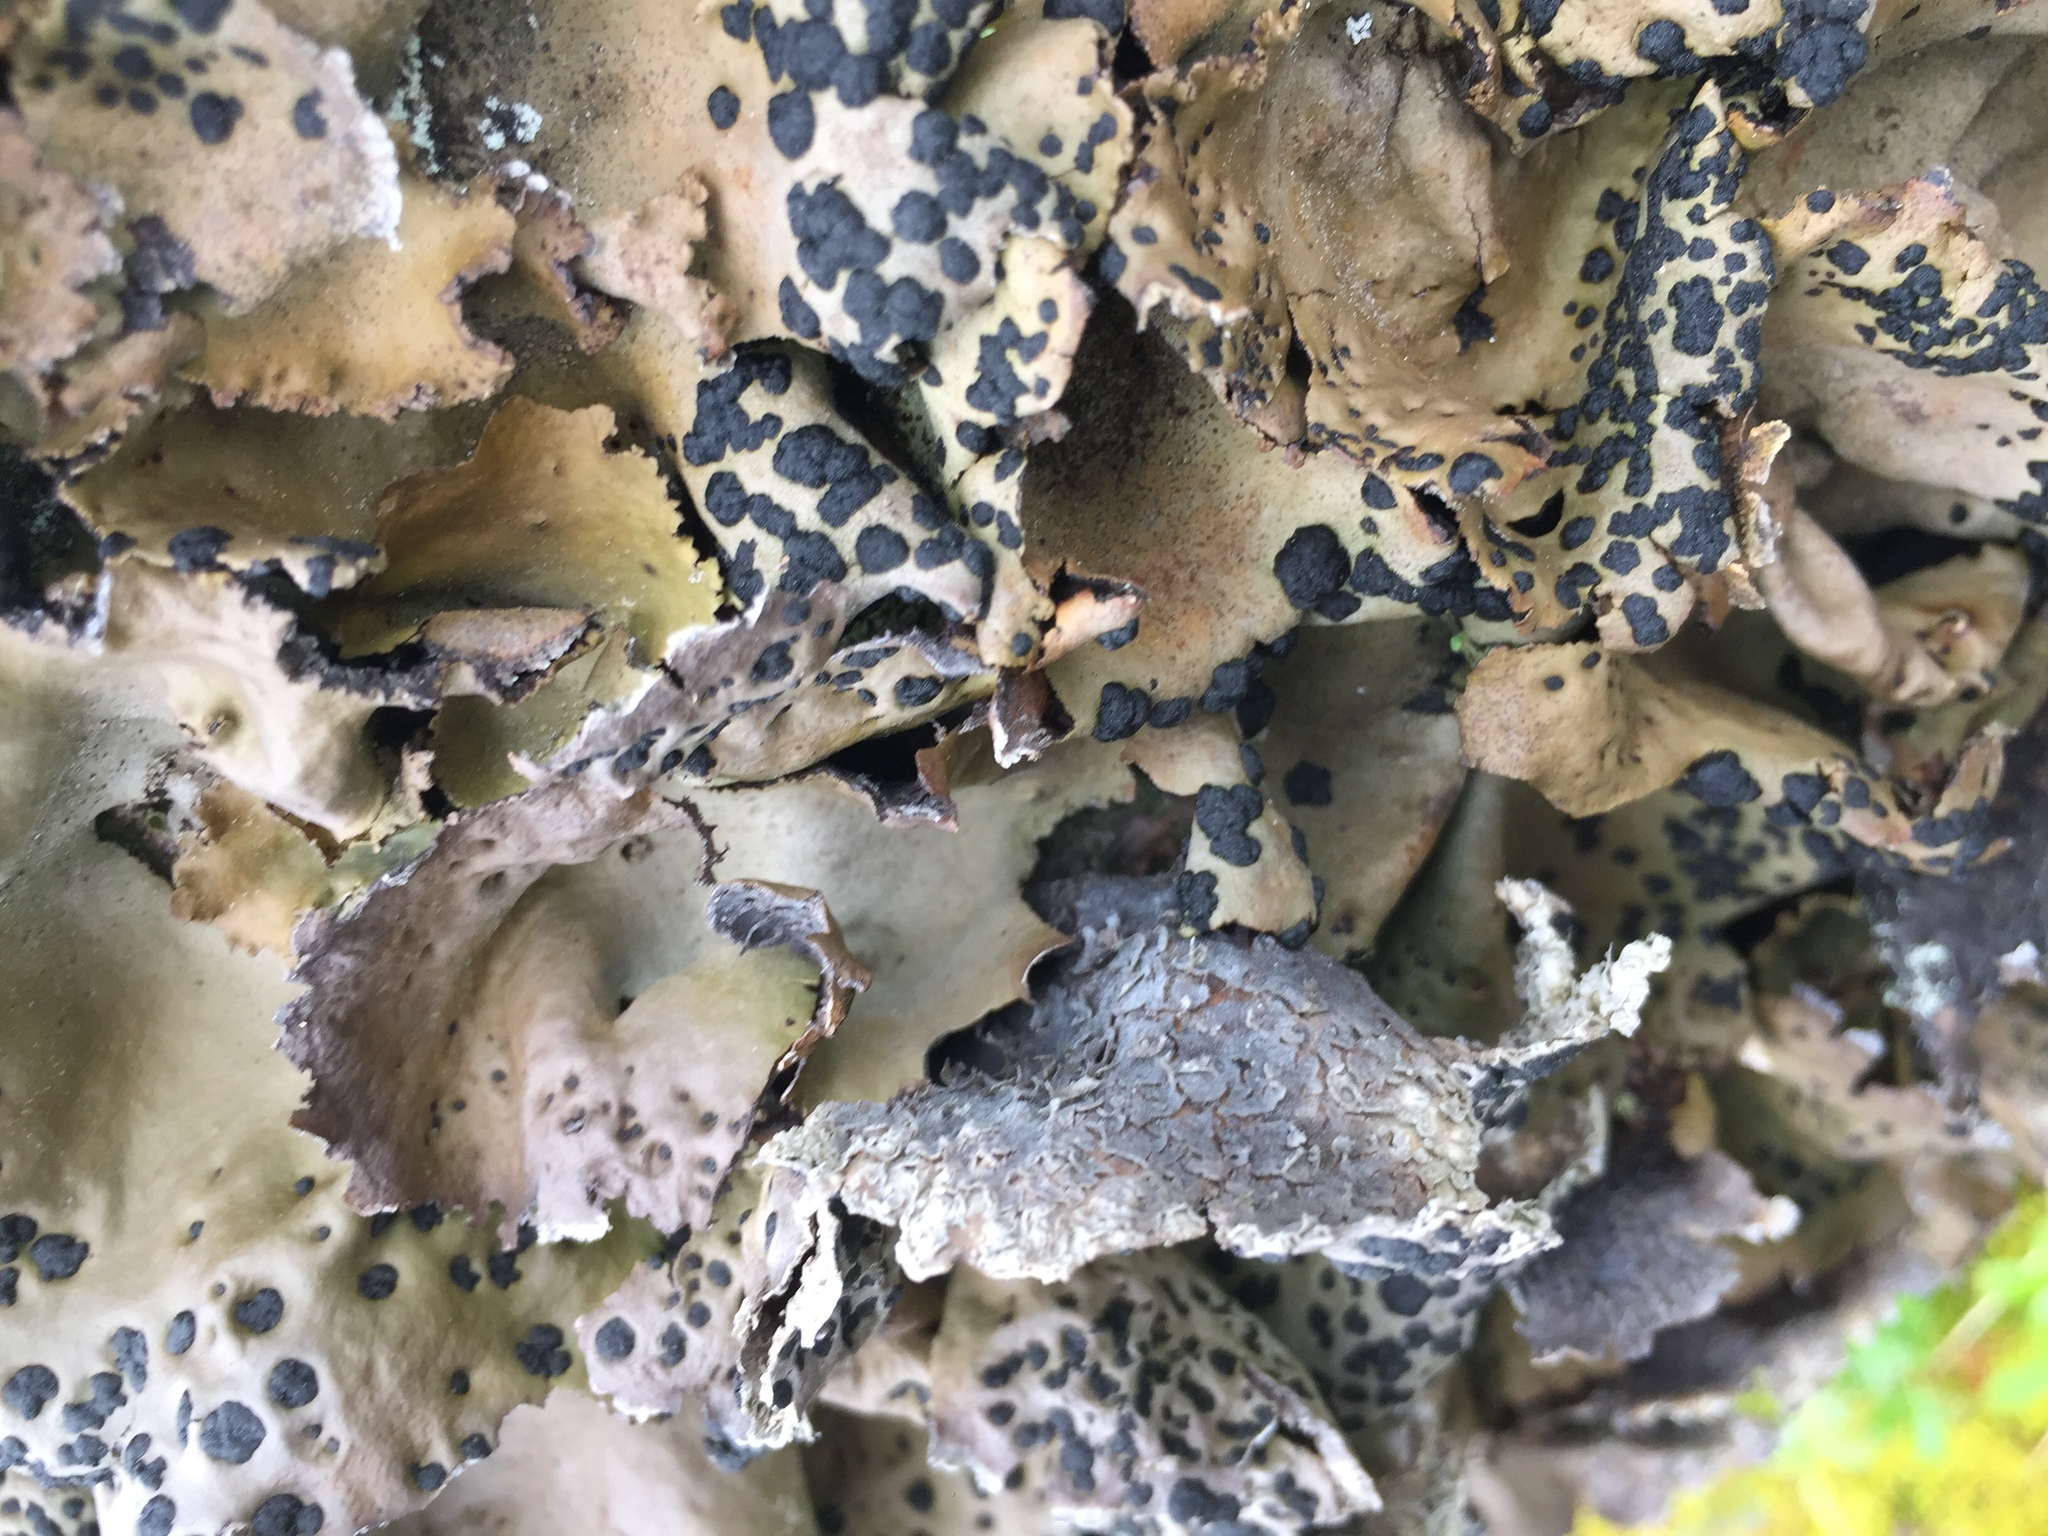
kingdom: Fungi
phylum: Ascomycota
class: Lecanoromycetes
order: Umbilicariales
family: Umbilicariaceae
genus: Umbilicaria
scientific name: Umbilicaria muhlenbergii
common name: Lesser rocktripe
